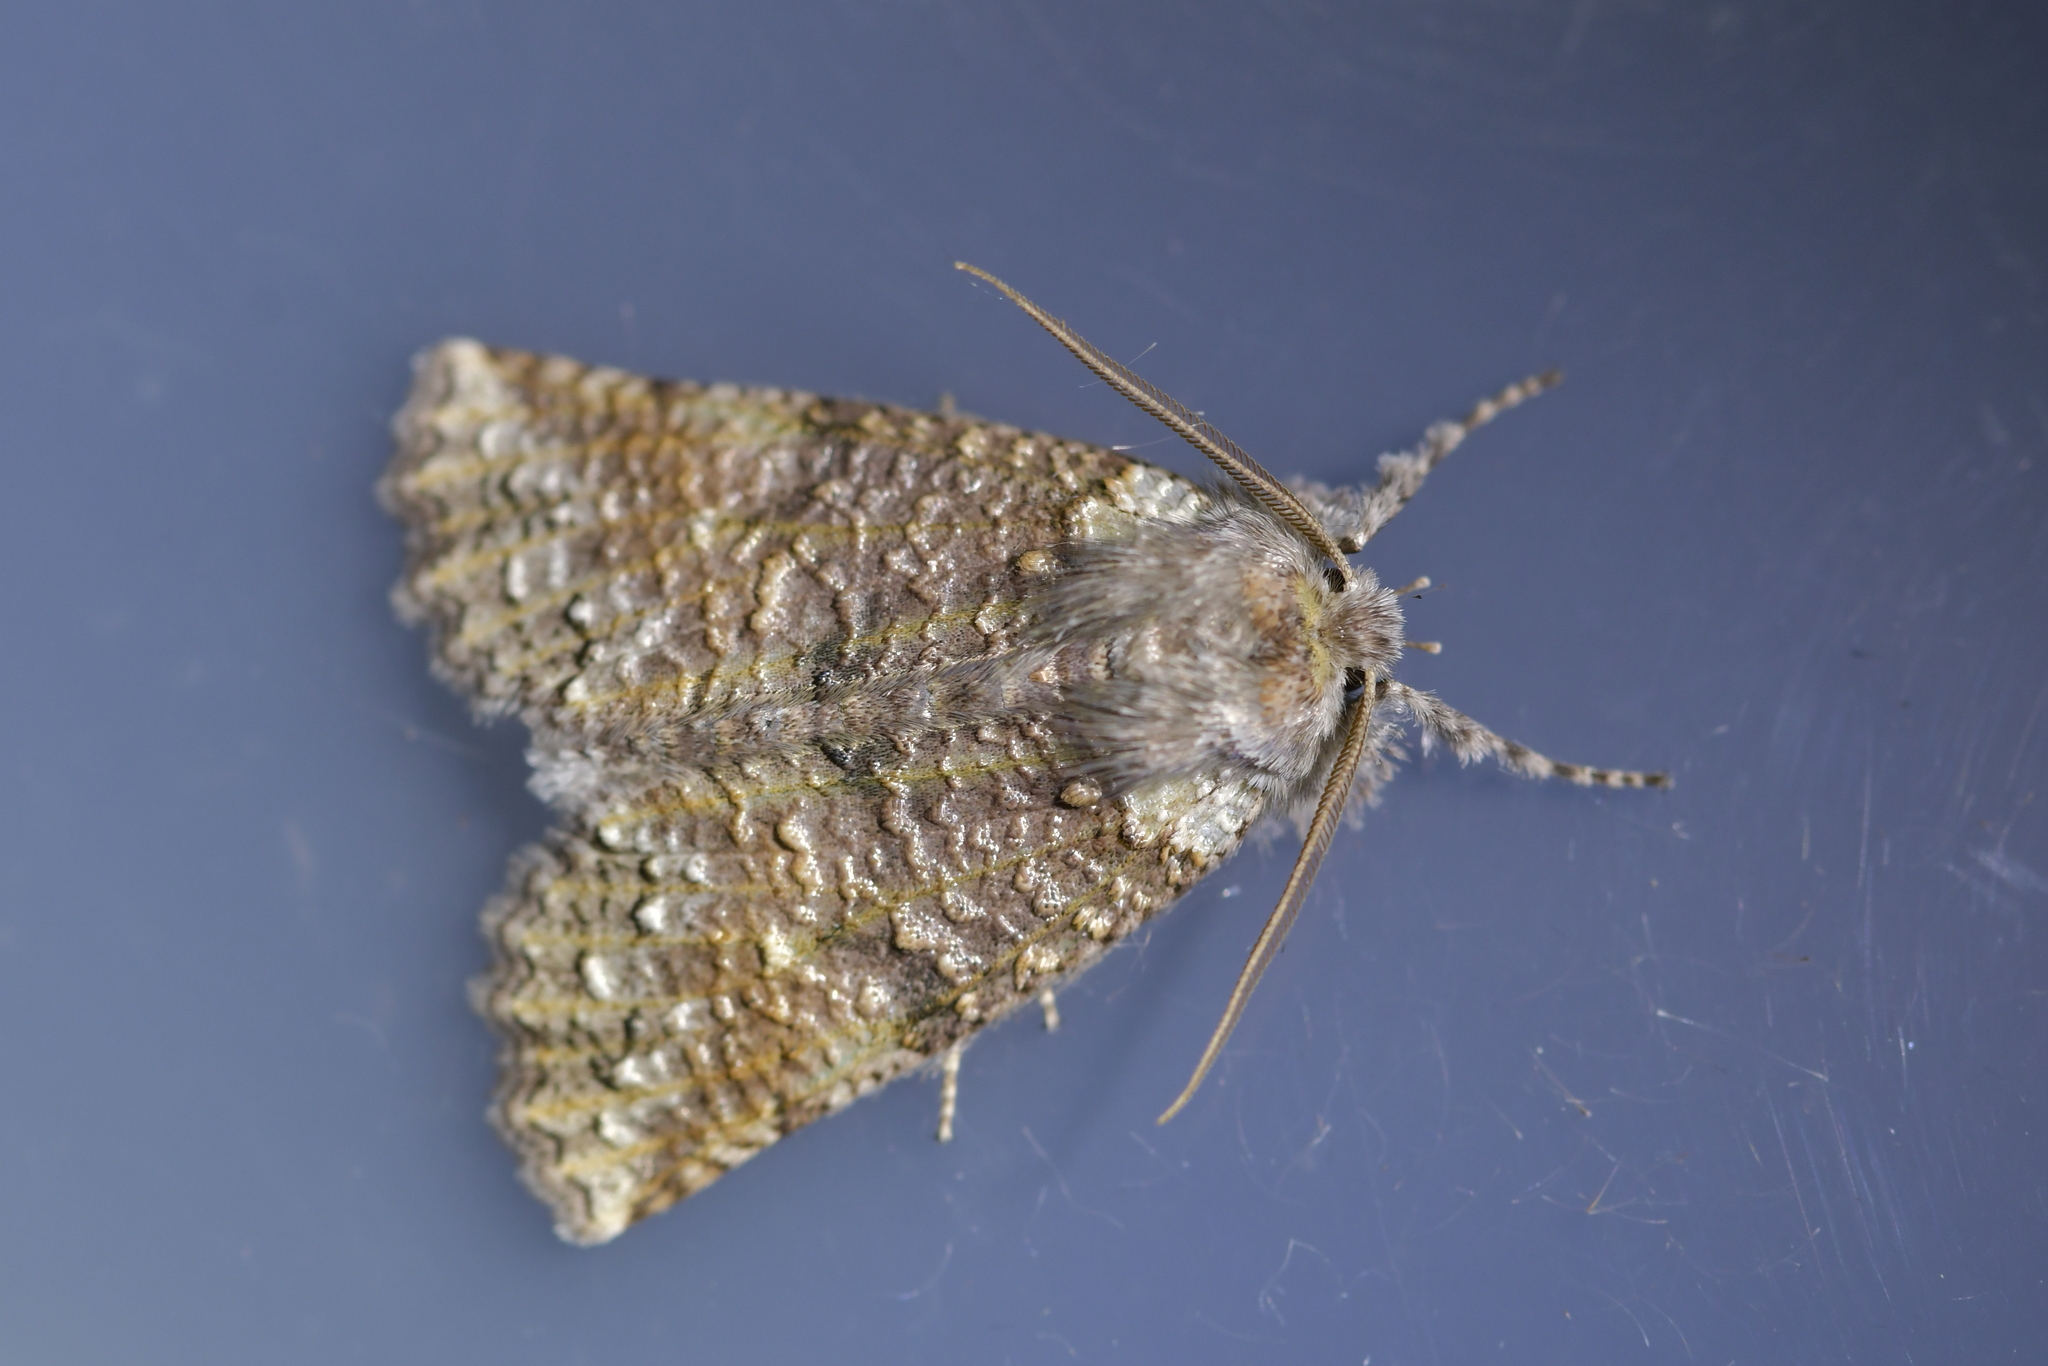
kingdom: Animalia
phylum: Arthropoda
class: Insecta
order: Lepidoptera
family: Geometridae
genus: Declana
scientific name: Declana floccosa
